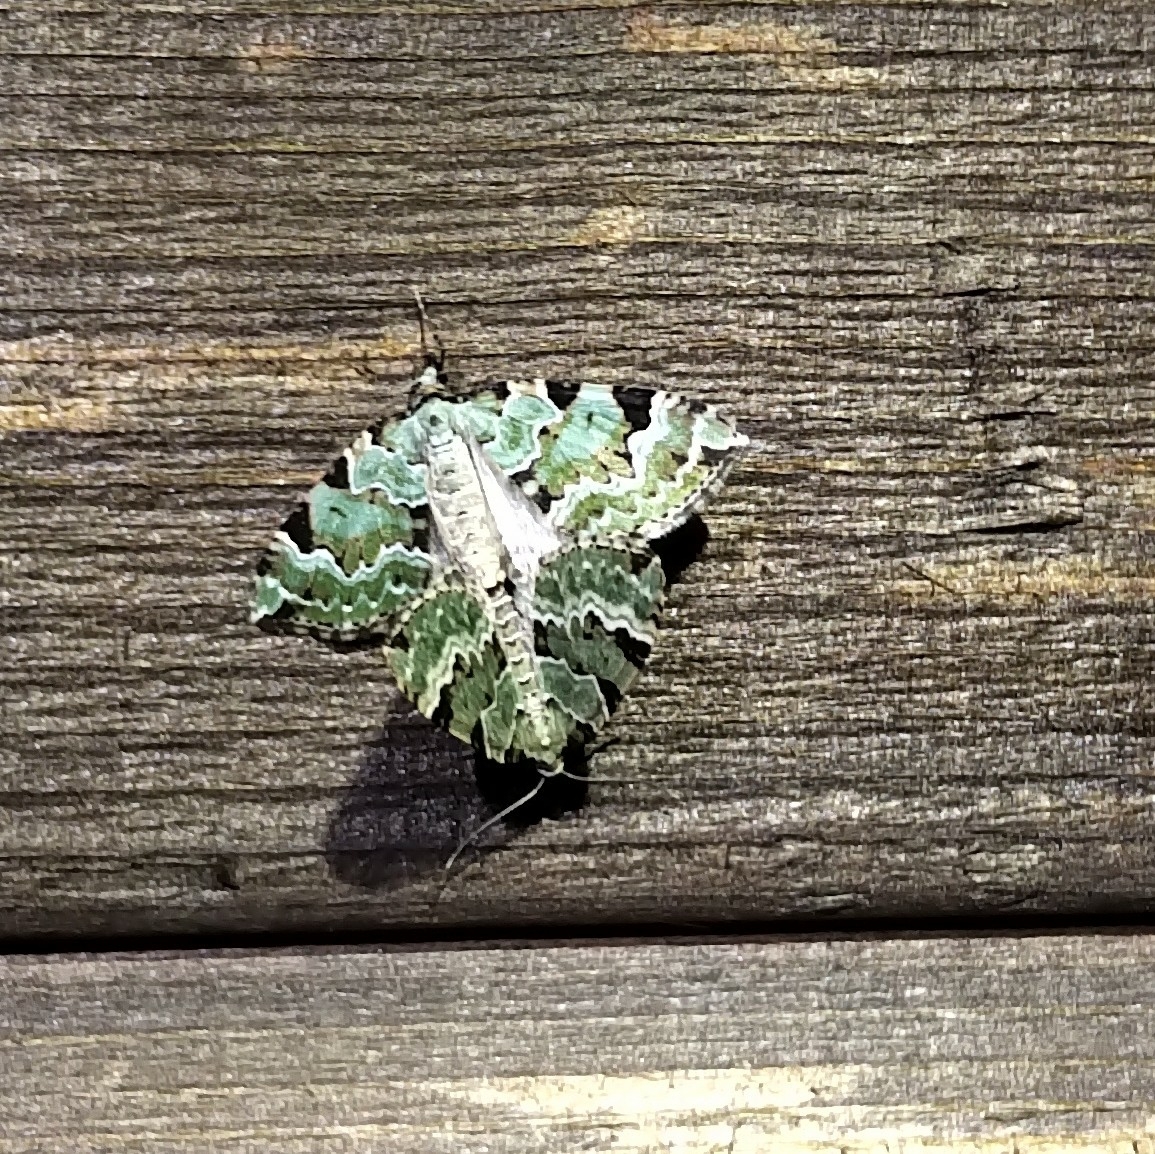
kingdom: Animalia
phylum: Arthropoda
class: Insecta
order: Lepidoptera
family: Geometridae
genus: Colostygia
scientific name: Colostygia pectinataria
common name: Green carpet
